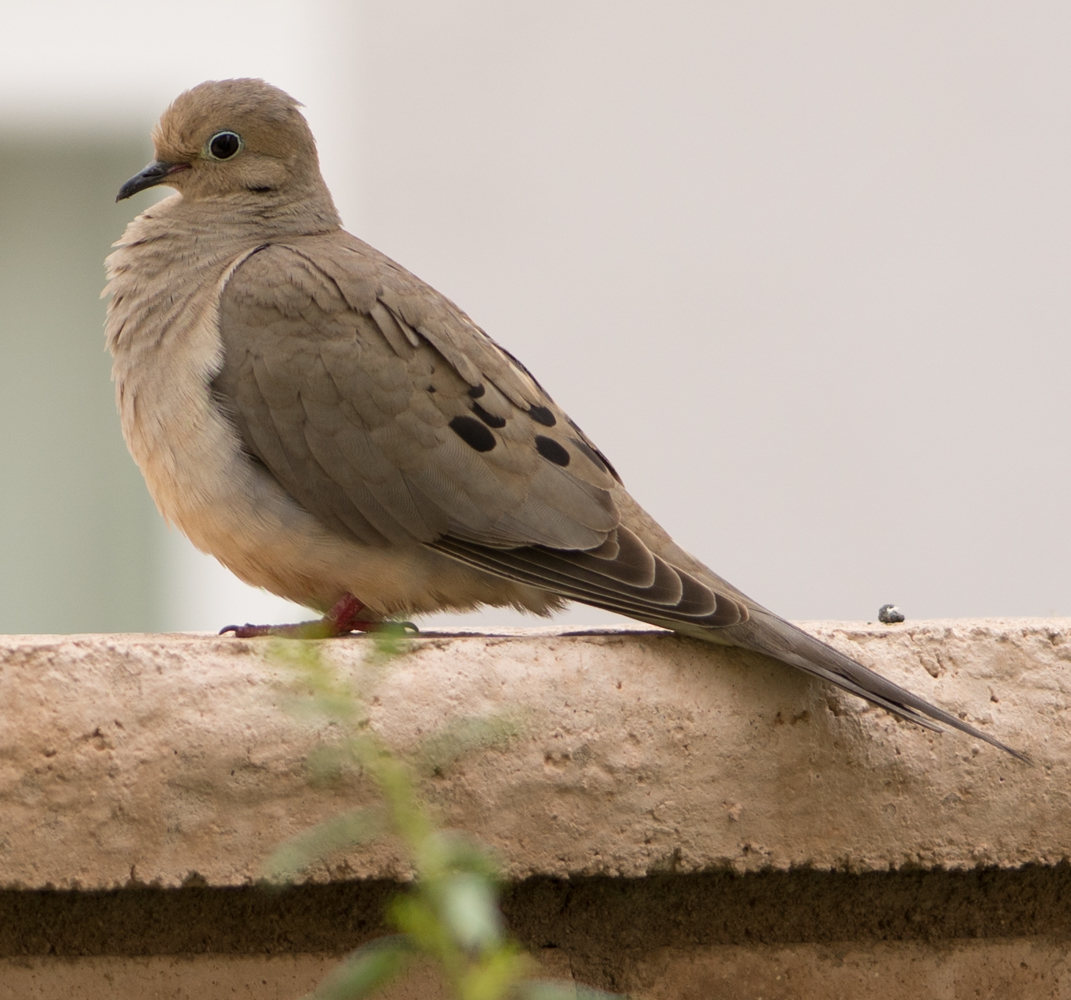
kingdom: Animalia
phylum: Chordata
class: Aves
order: Columbiformes
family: Columbidae
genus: Zenaida
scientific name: Zenaida macroura
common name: Mourning dove
